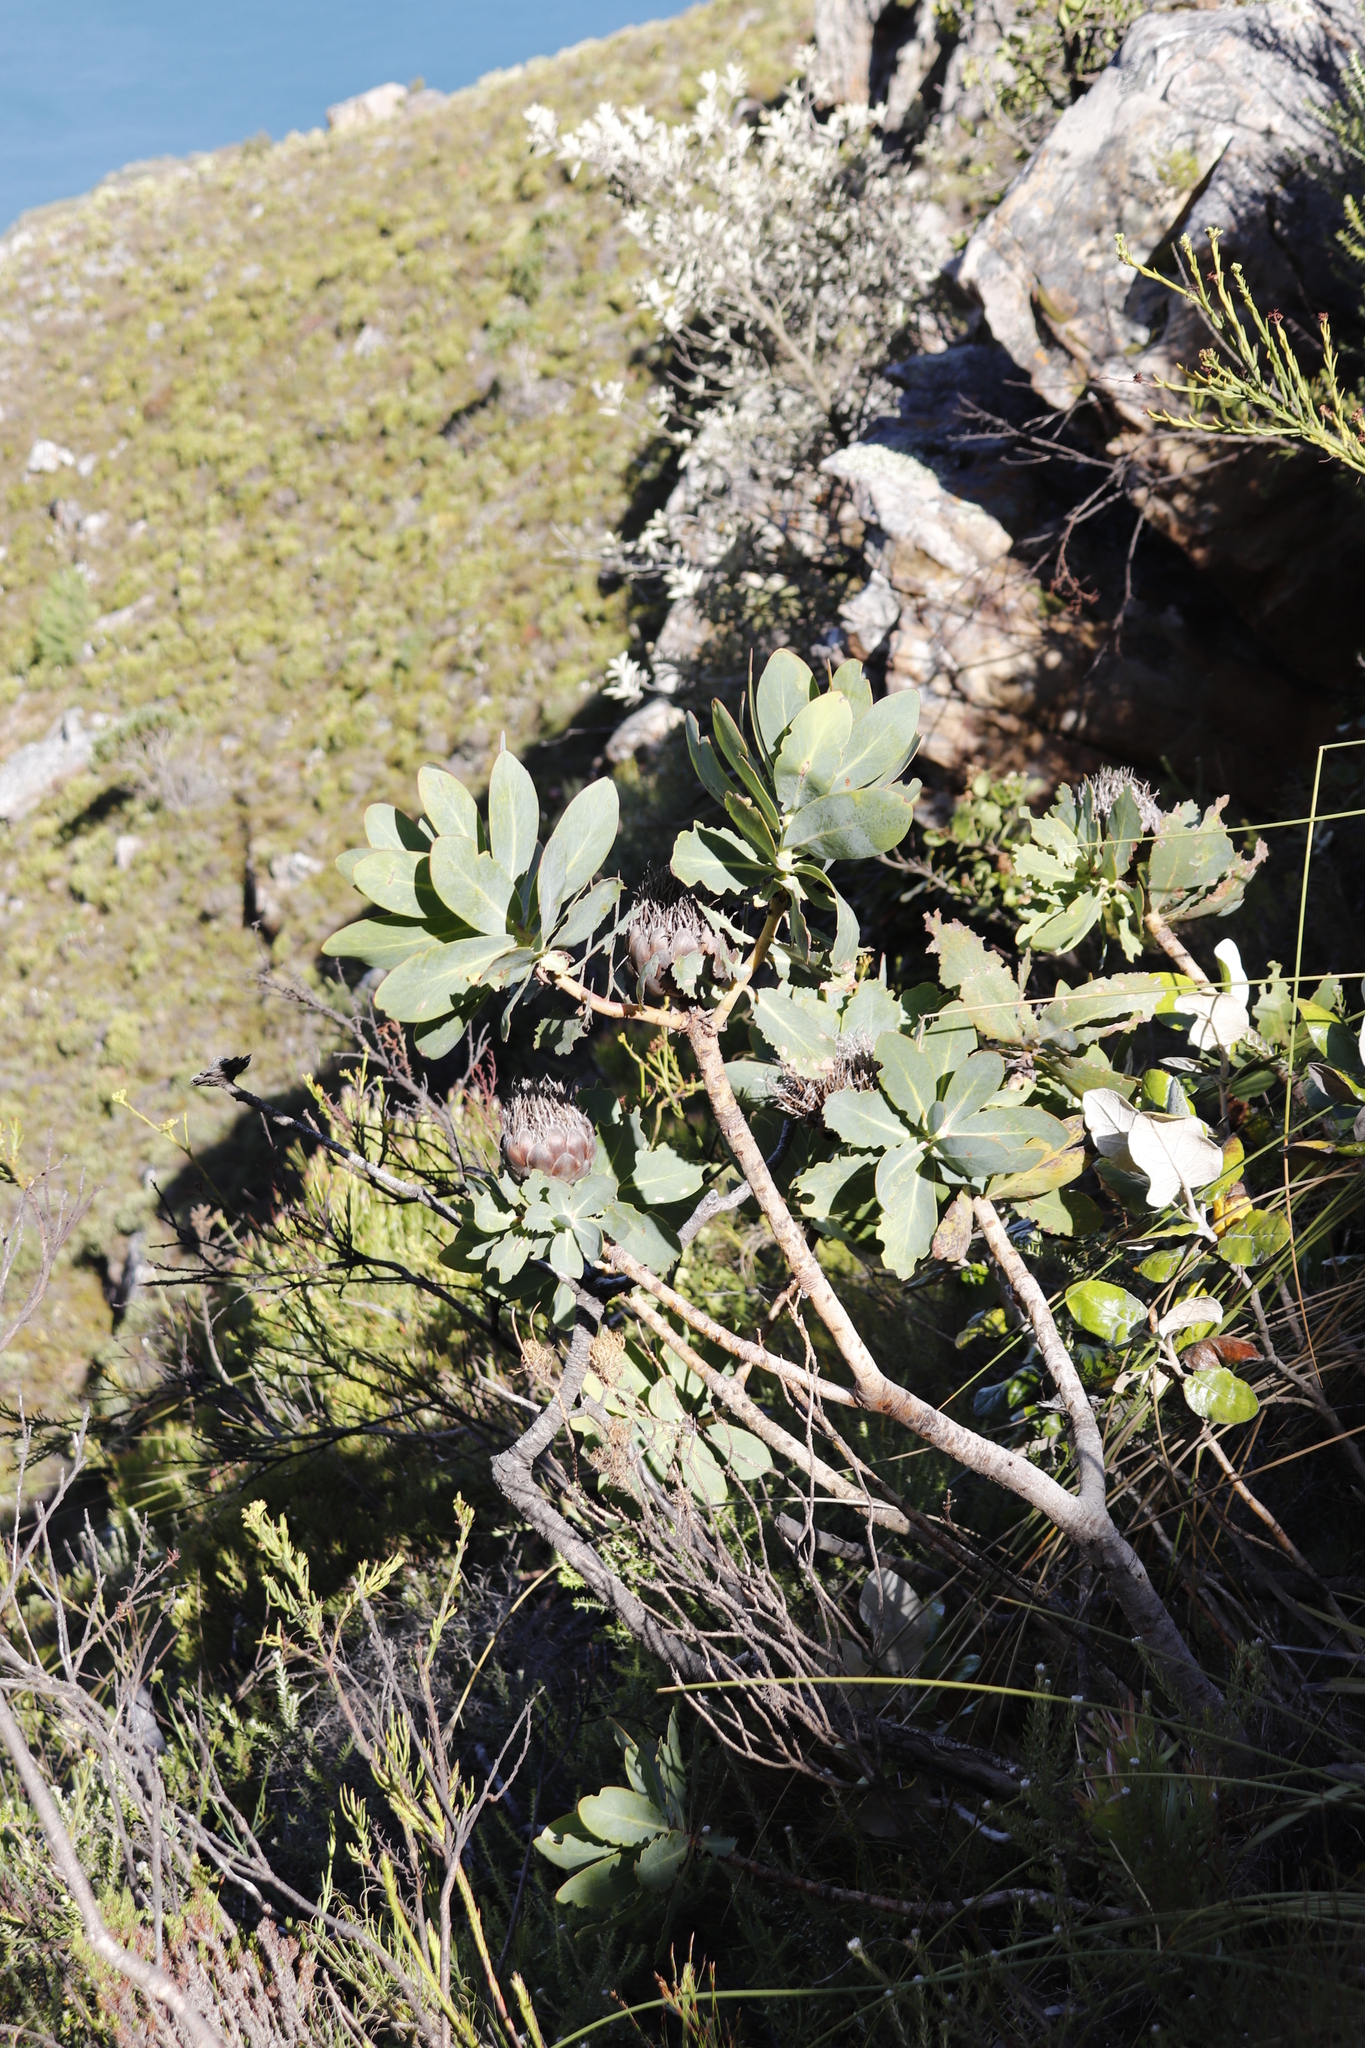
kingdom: Plantae
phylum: Tracheophyta
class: Magnoliopsida
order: Proteales
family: Proteaceae
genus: Protea
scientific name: Protea nitida
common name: Tree protea
